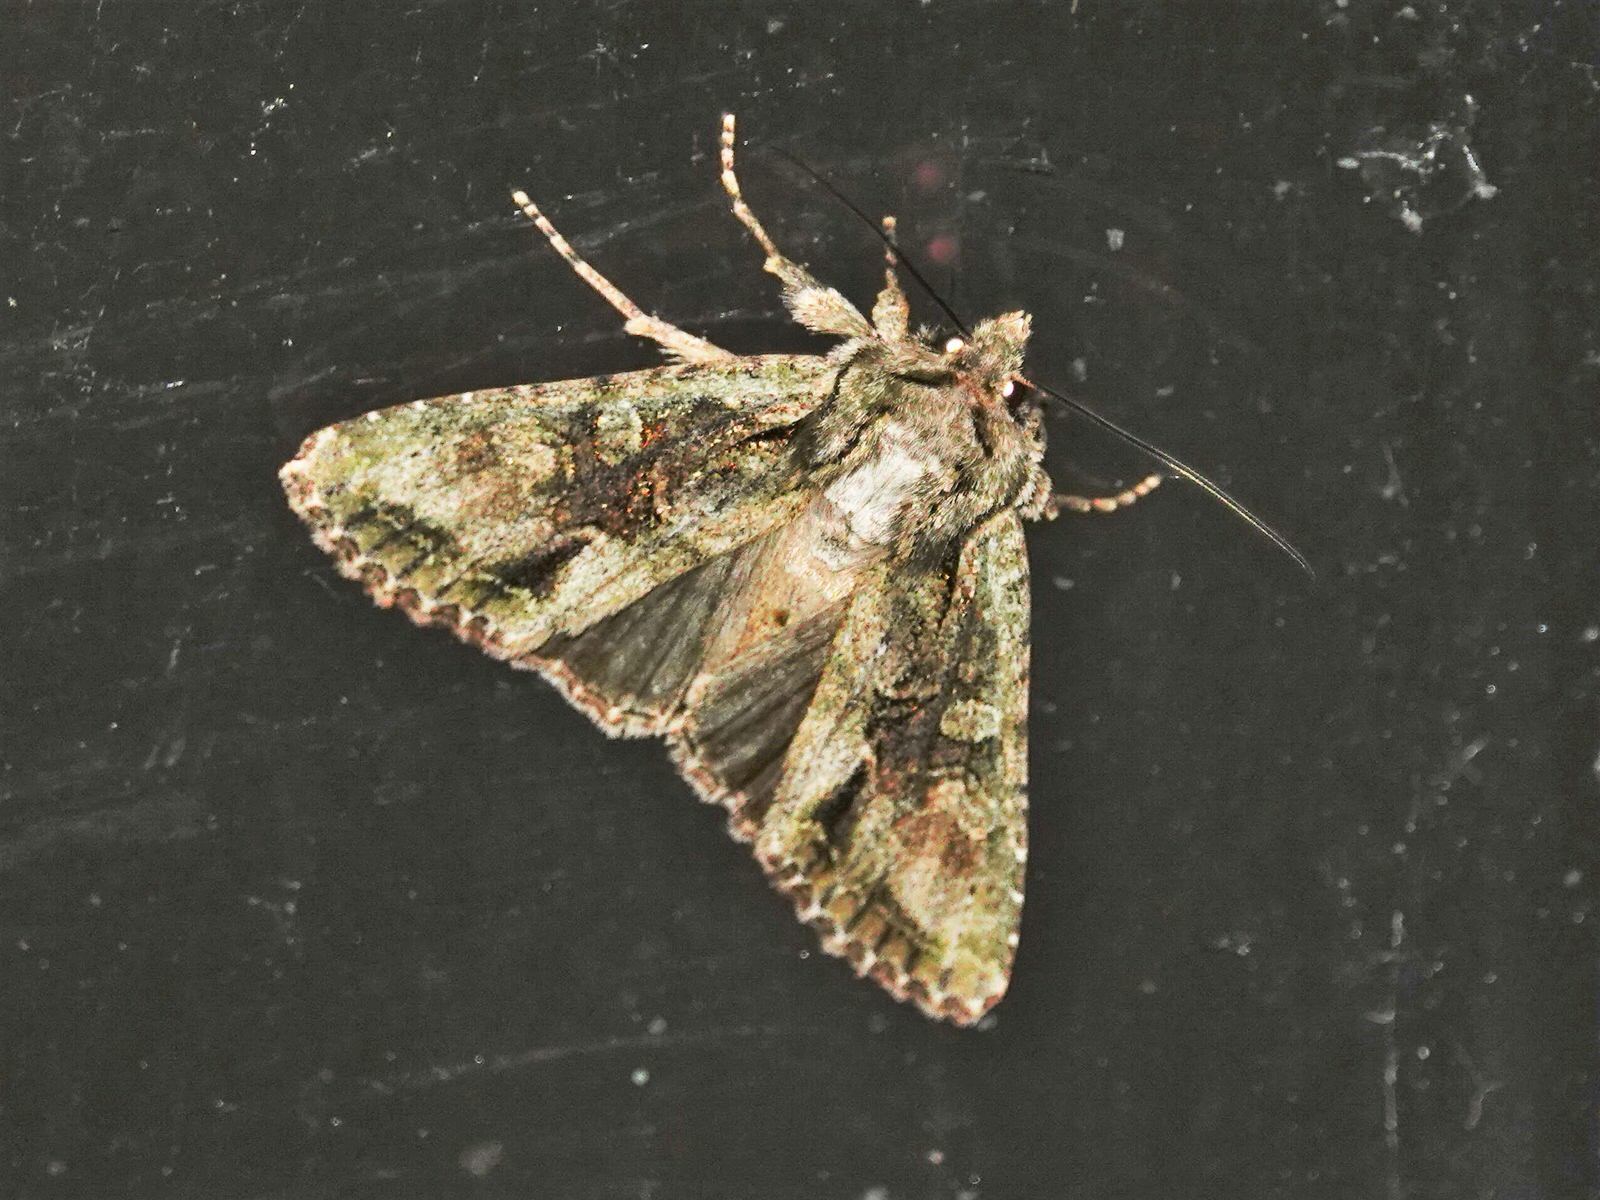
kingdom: Animalia
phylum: Arthropoda
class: Insecta
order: Lepidoptera
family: Noctuidae
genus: Ichneutica
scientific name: Ichneutica
